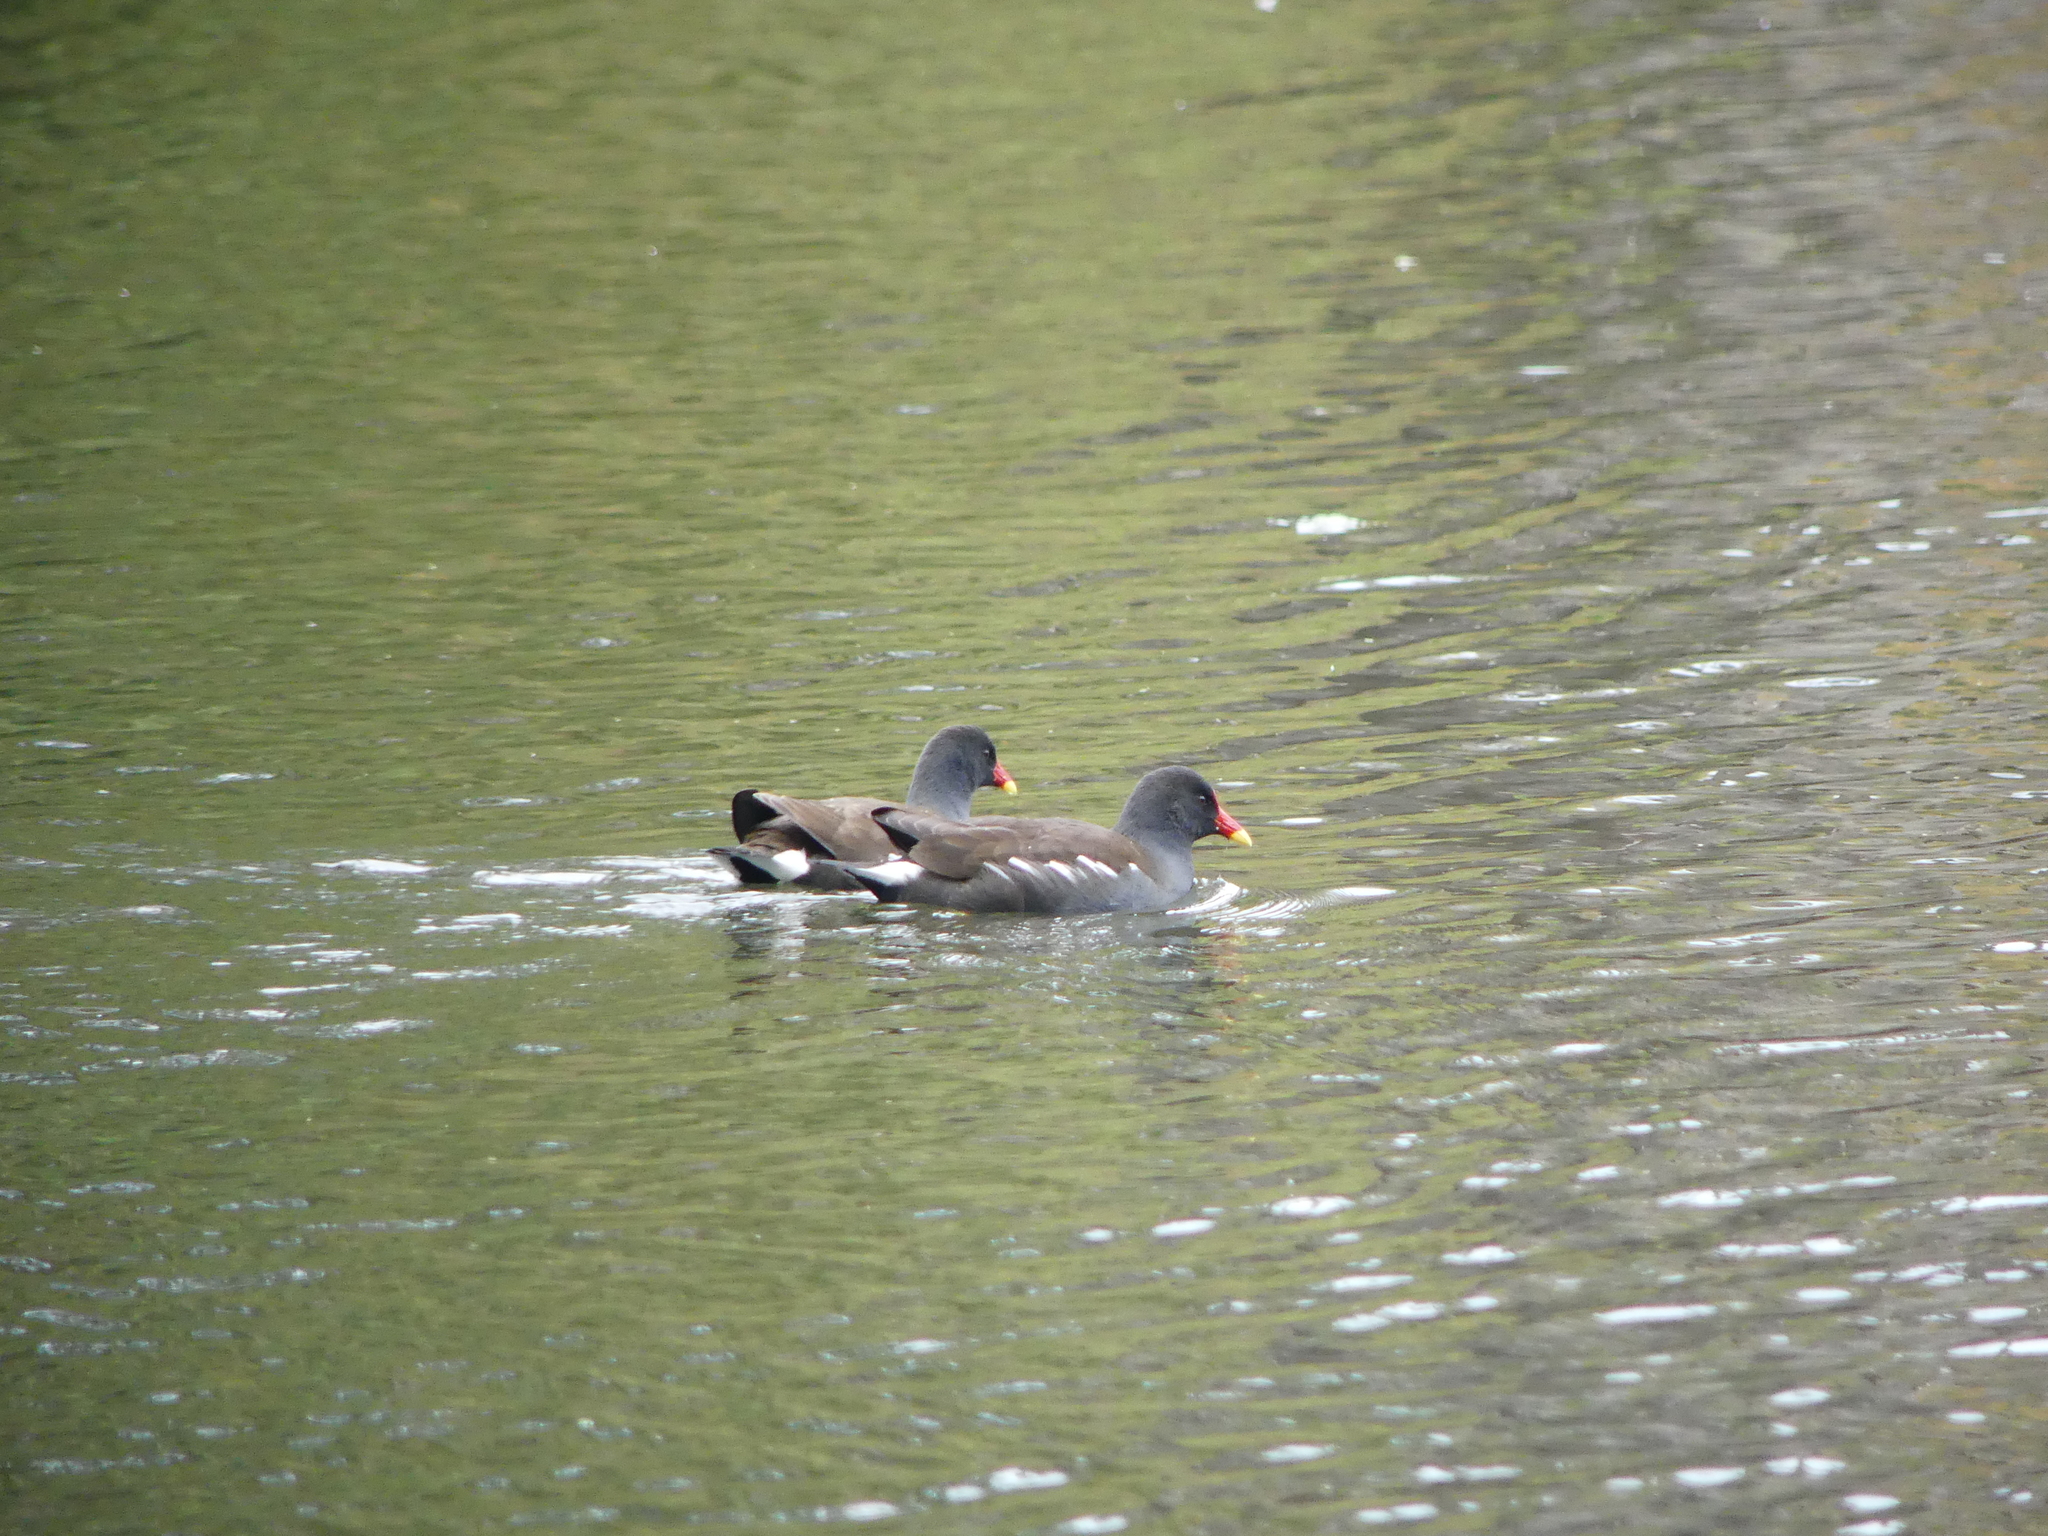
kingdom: Animalia
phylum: Chordata
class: Aves
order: Gruiformes
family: Rallidae
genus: Gallinula
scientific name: Gallinula chloropus
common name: Common moorhen
